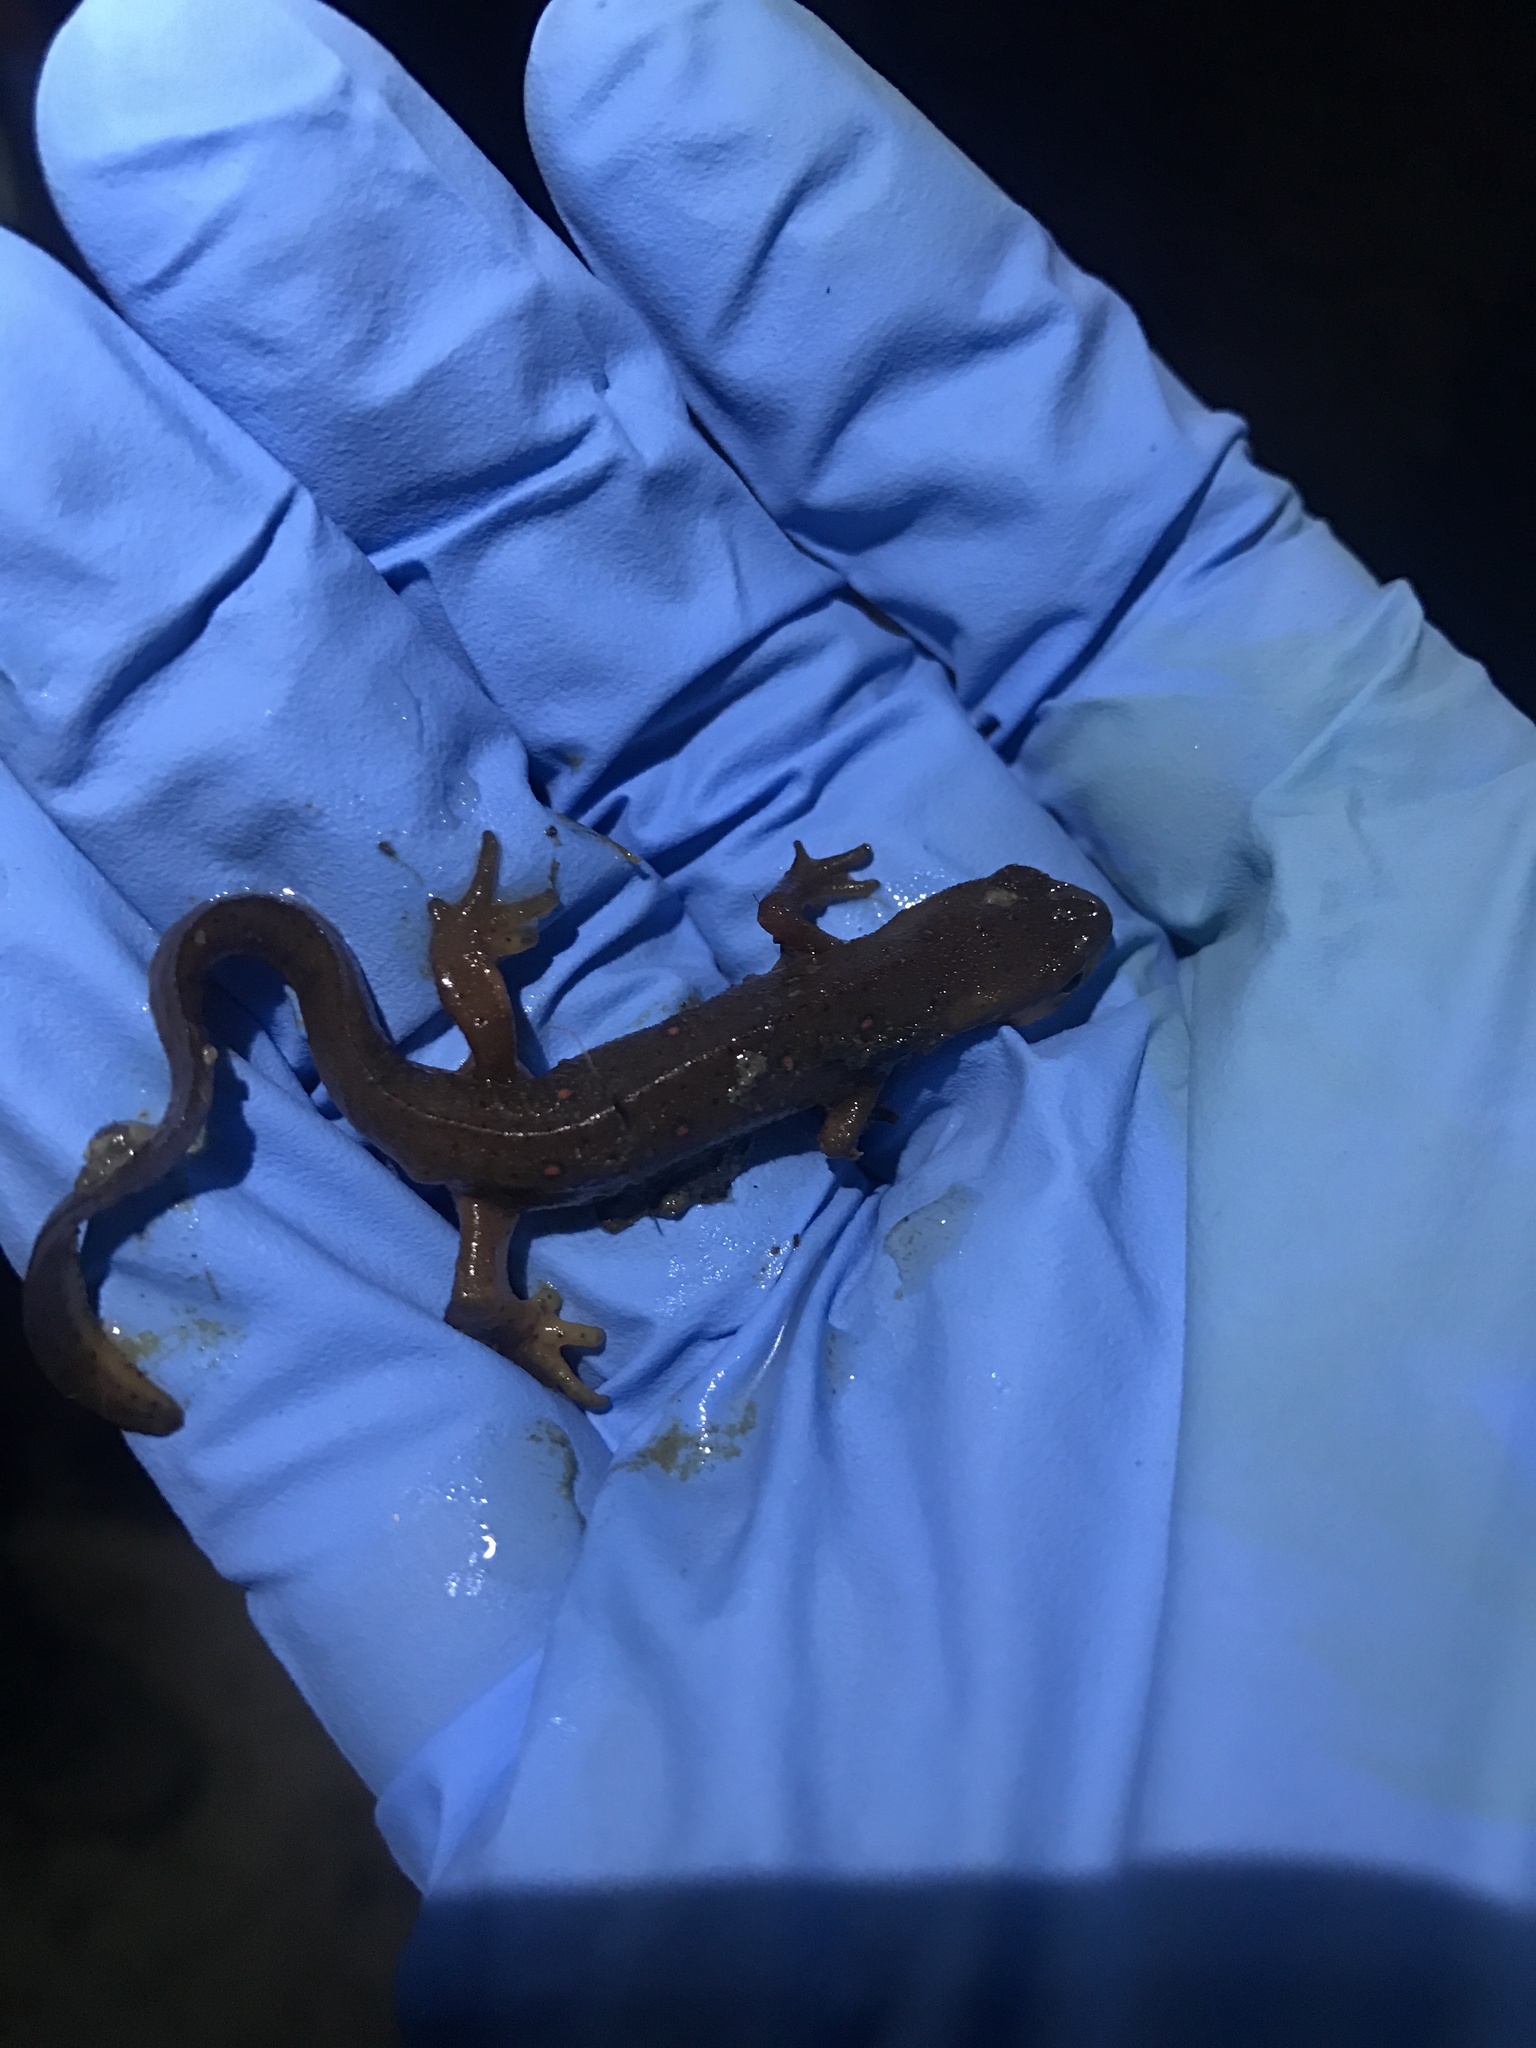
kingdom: Animalia
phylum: Chordata
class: Amphibia
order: Caudata
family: Salamandridae
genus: Notophthalmus
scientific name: Notophthalmus viridescens
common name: Eastern newt
